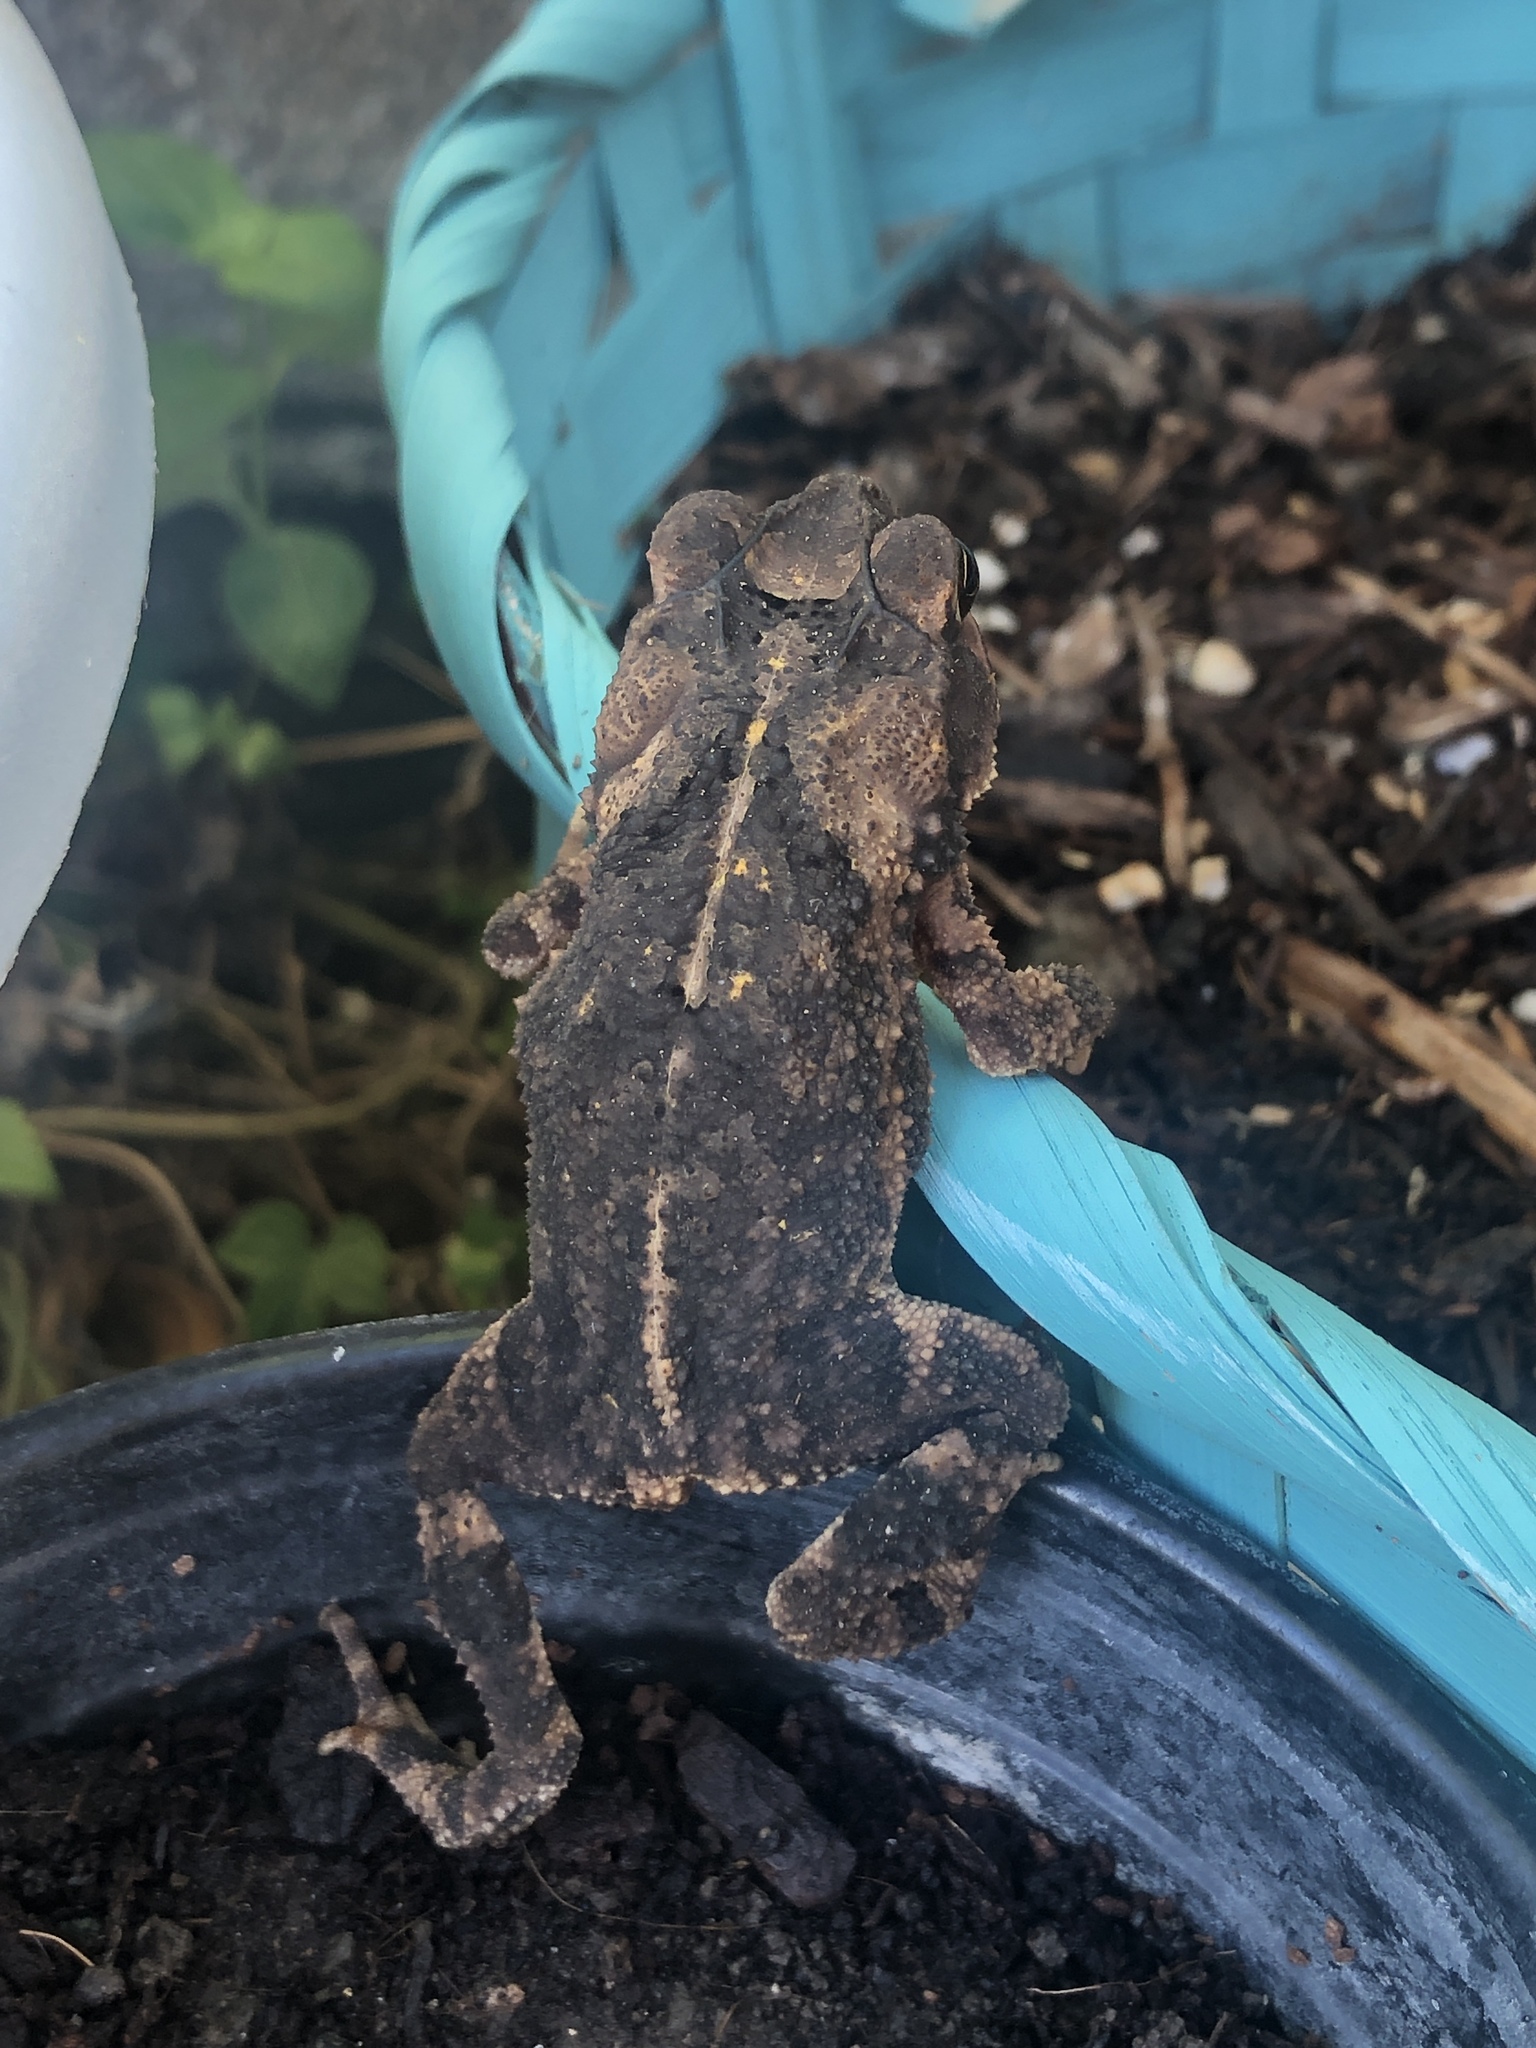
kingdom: Animalia
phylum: Chordata
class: Amphibia
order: Anura
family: Bufonidae
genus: Incilius
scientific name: Incilius nebulifer
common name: Gulf coast toad
